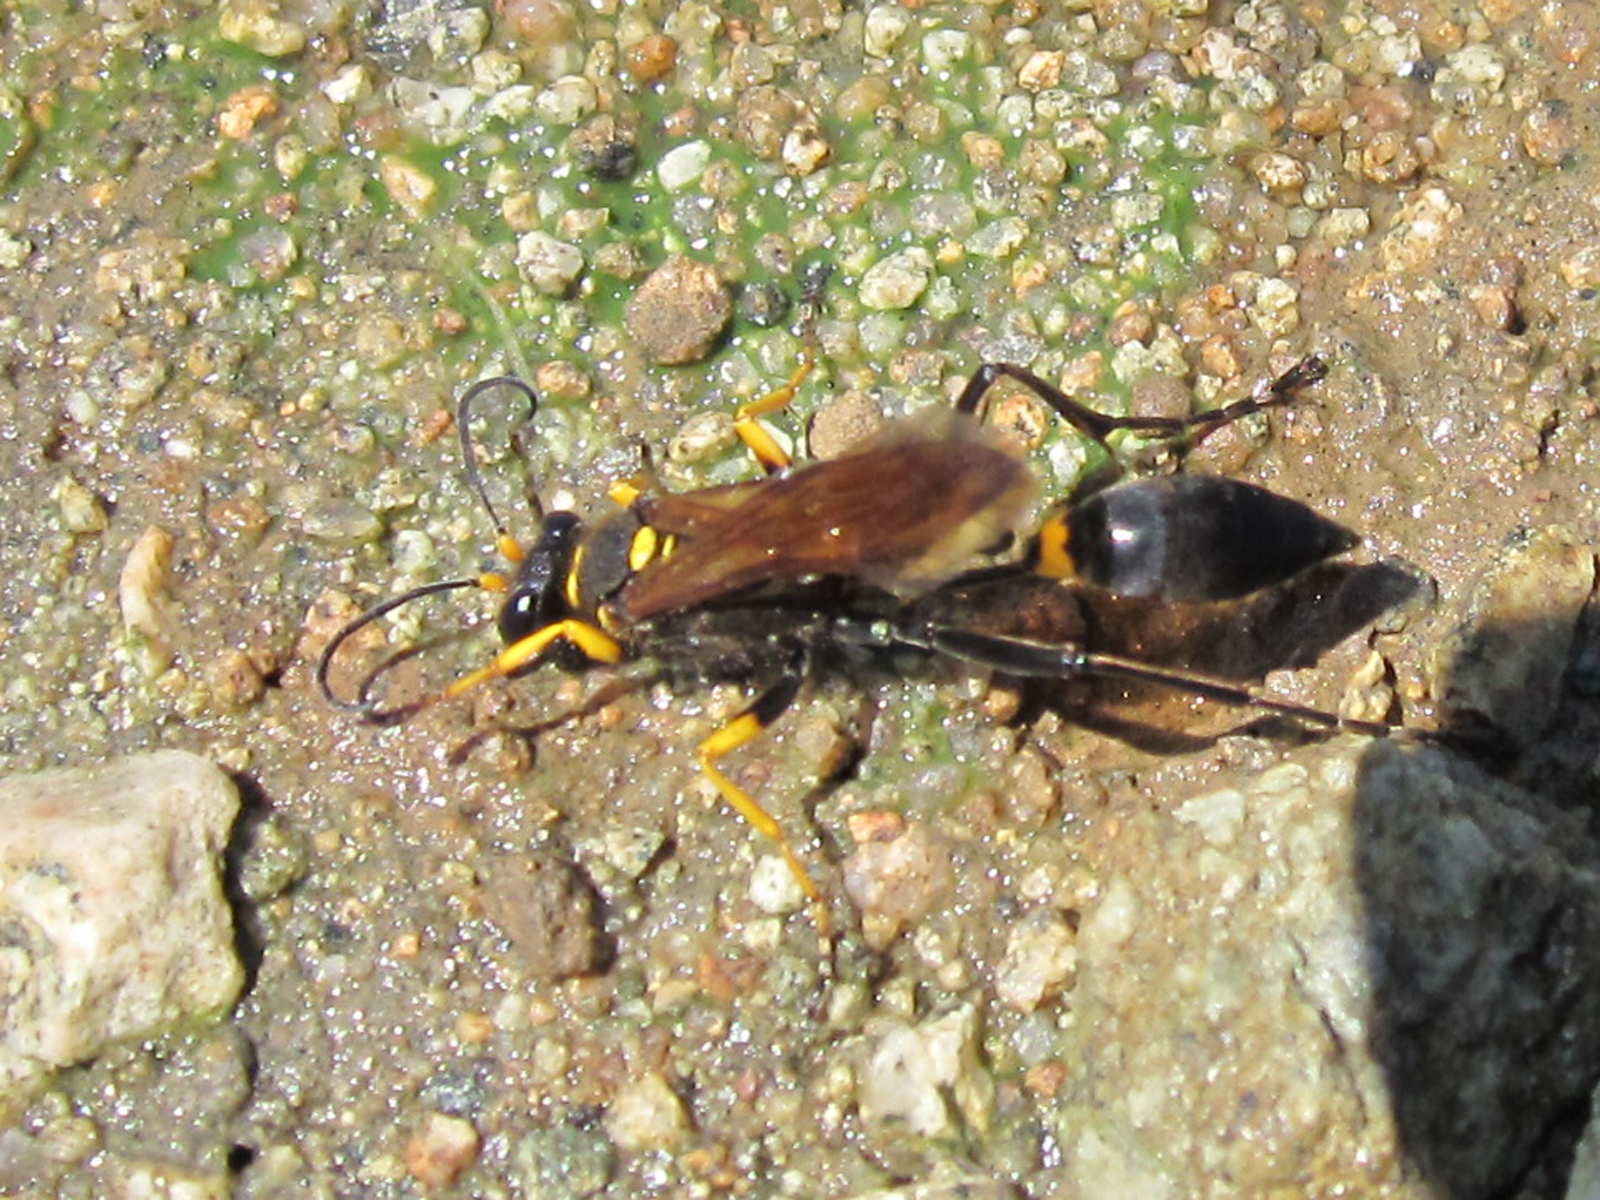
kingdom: Animalia
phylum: Arthropoda
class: Insecta
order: Hymenoptera
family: Sphecidae
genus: Sceliphron
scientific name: Sceliphron asiaticum
